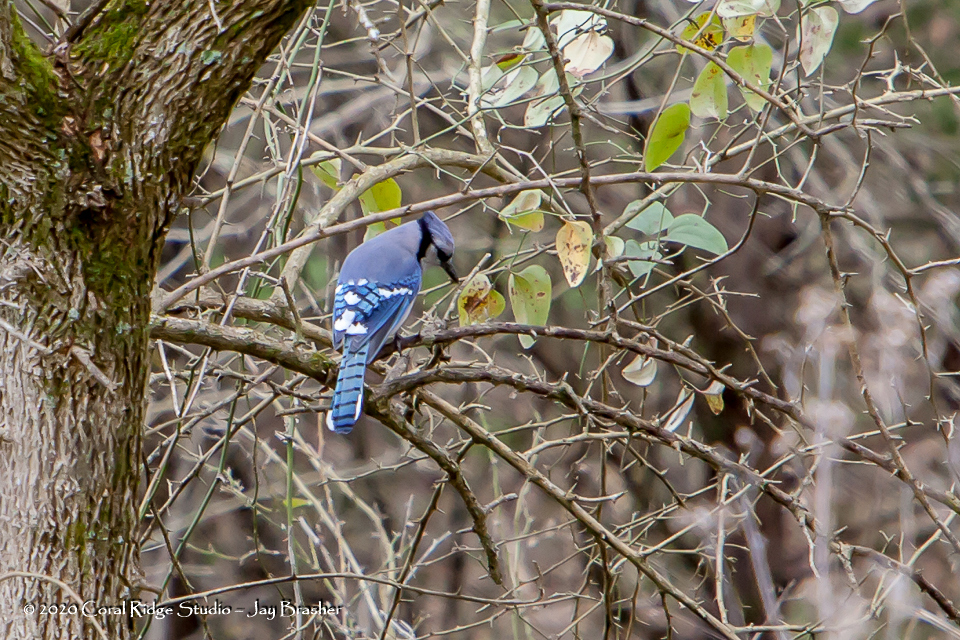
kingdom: Animalia
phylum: Chordata
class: Aves
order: Passeriformes
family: Corvidae
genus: Cyanocitta
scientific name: Cyanocitta cristata
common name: Blue jay
